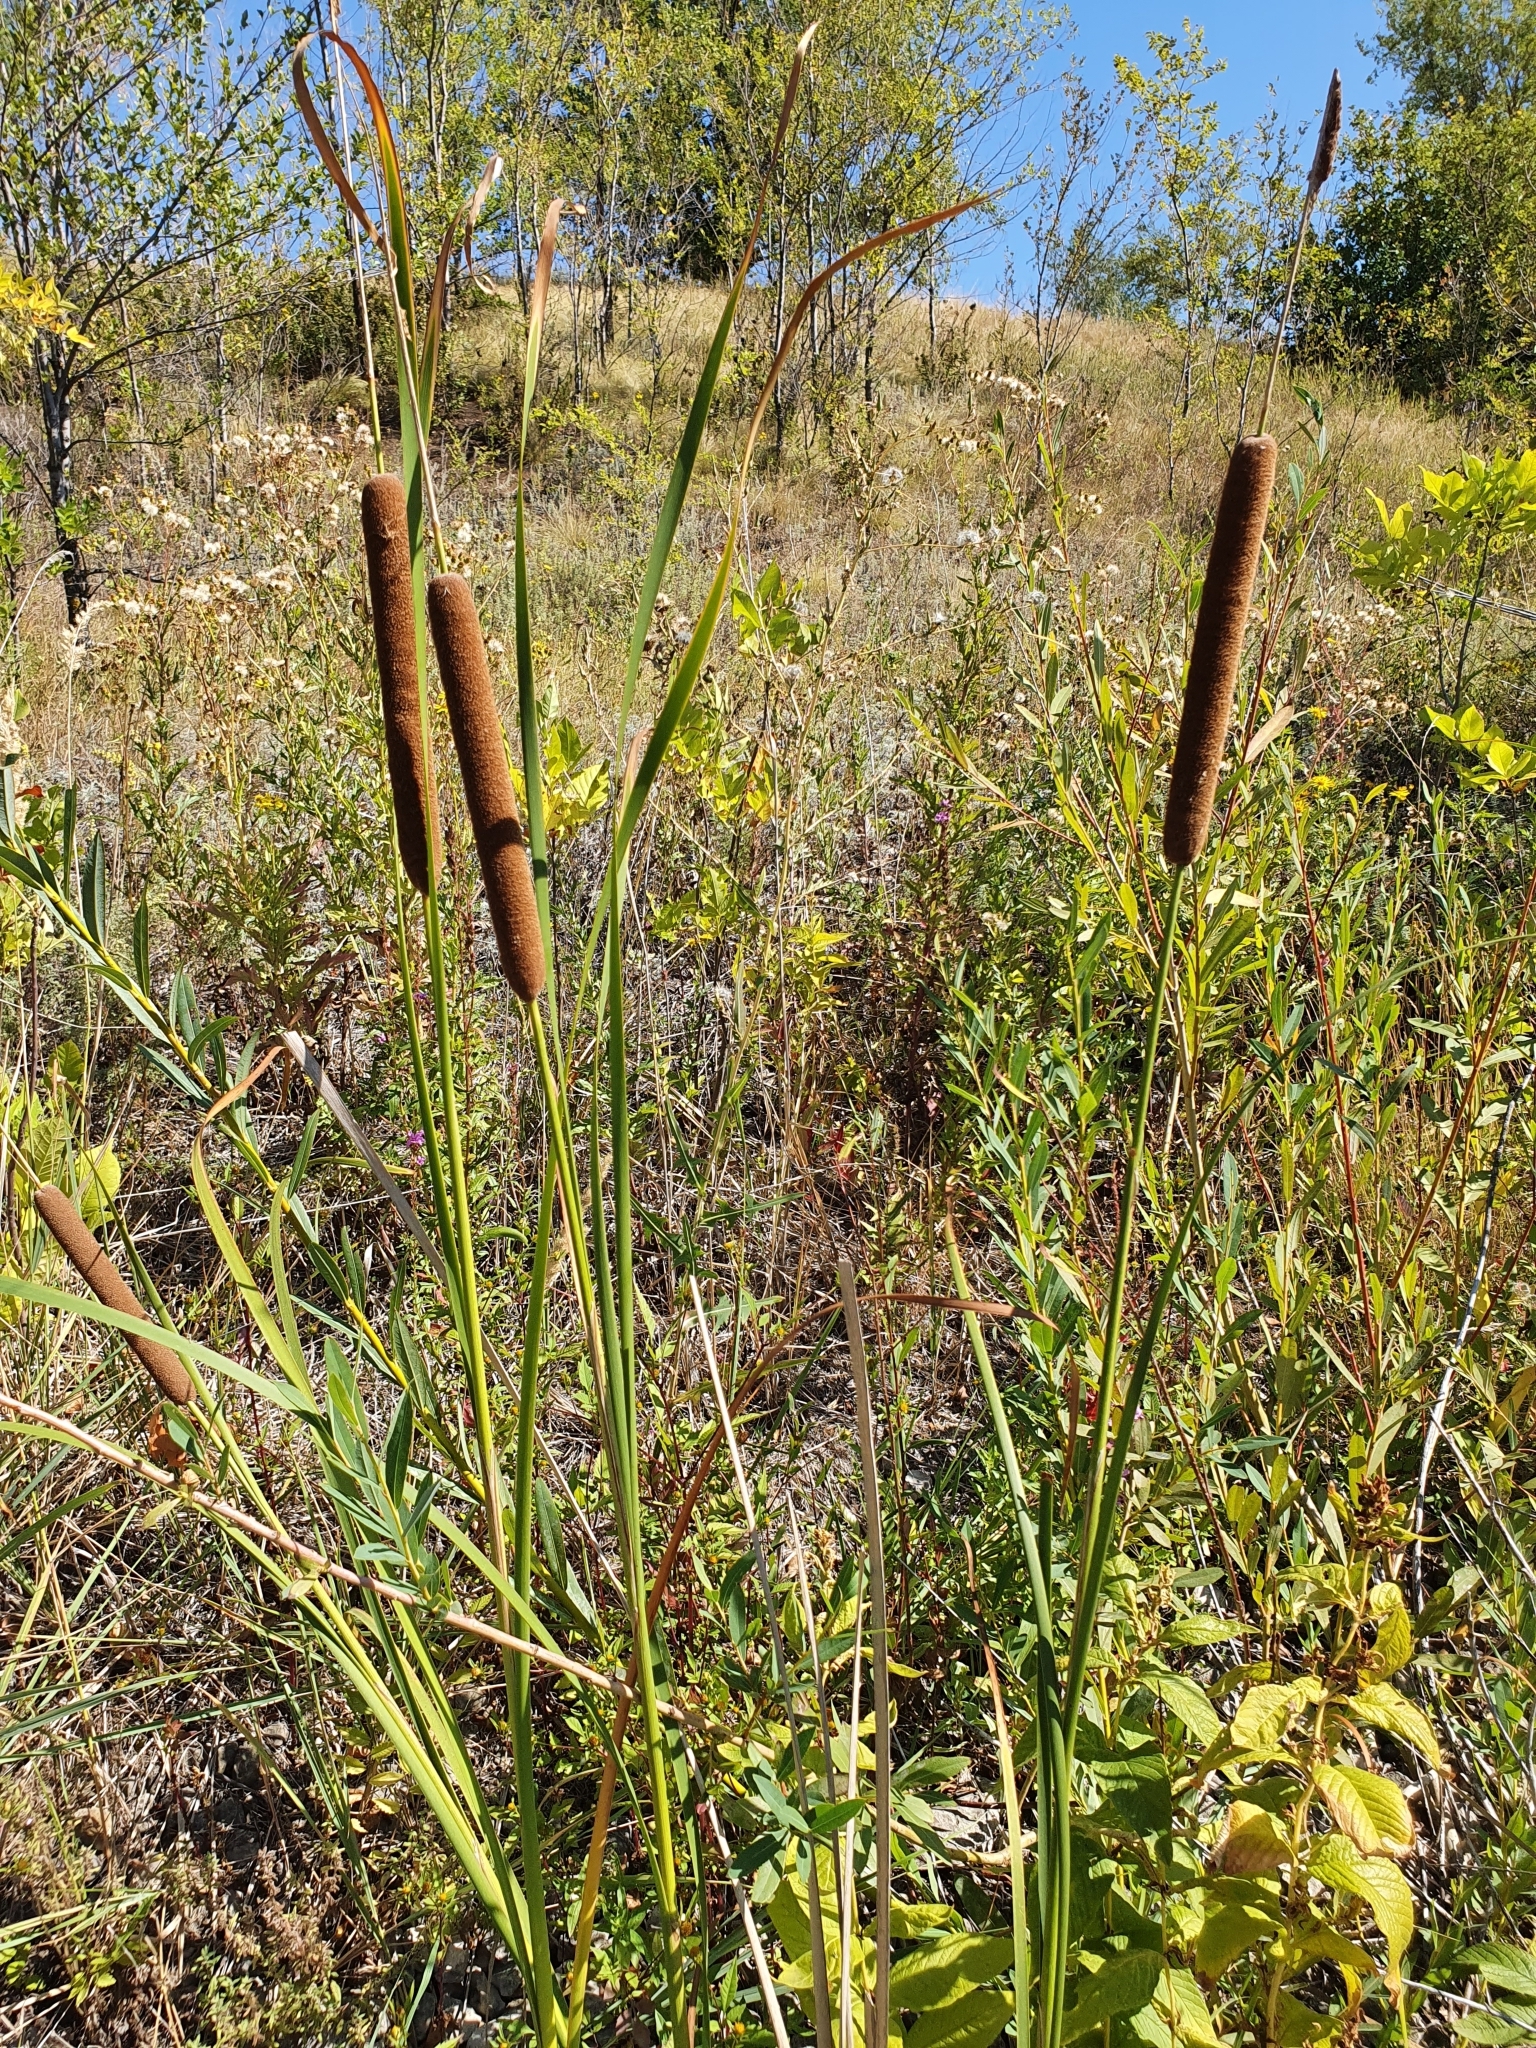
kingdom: Plantae
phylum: Tracheophyta
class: Liliopsida
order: Poales
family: Typhaceae
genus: Typha
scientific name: Typha angustifolia
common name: Lesser bulrush
